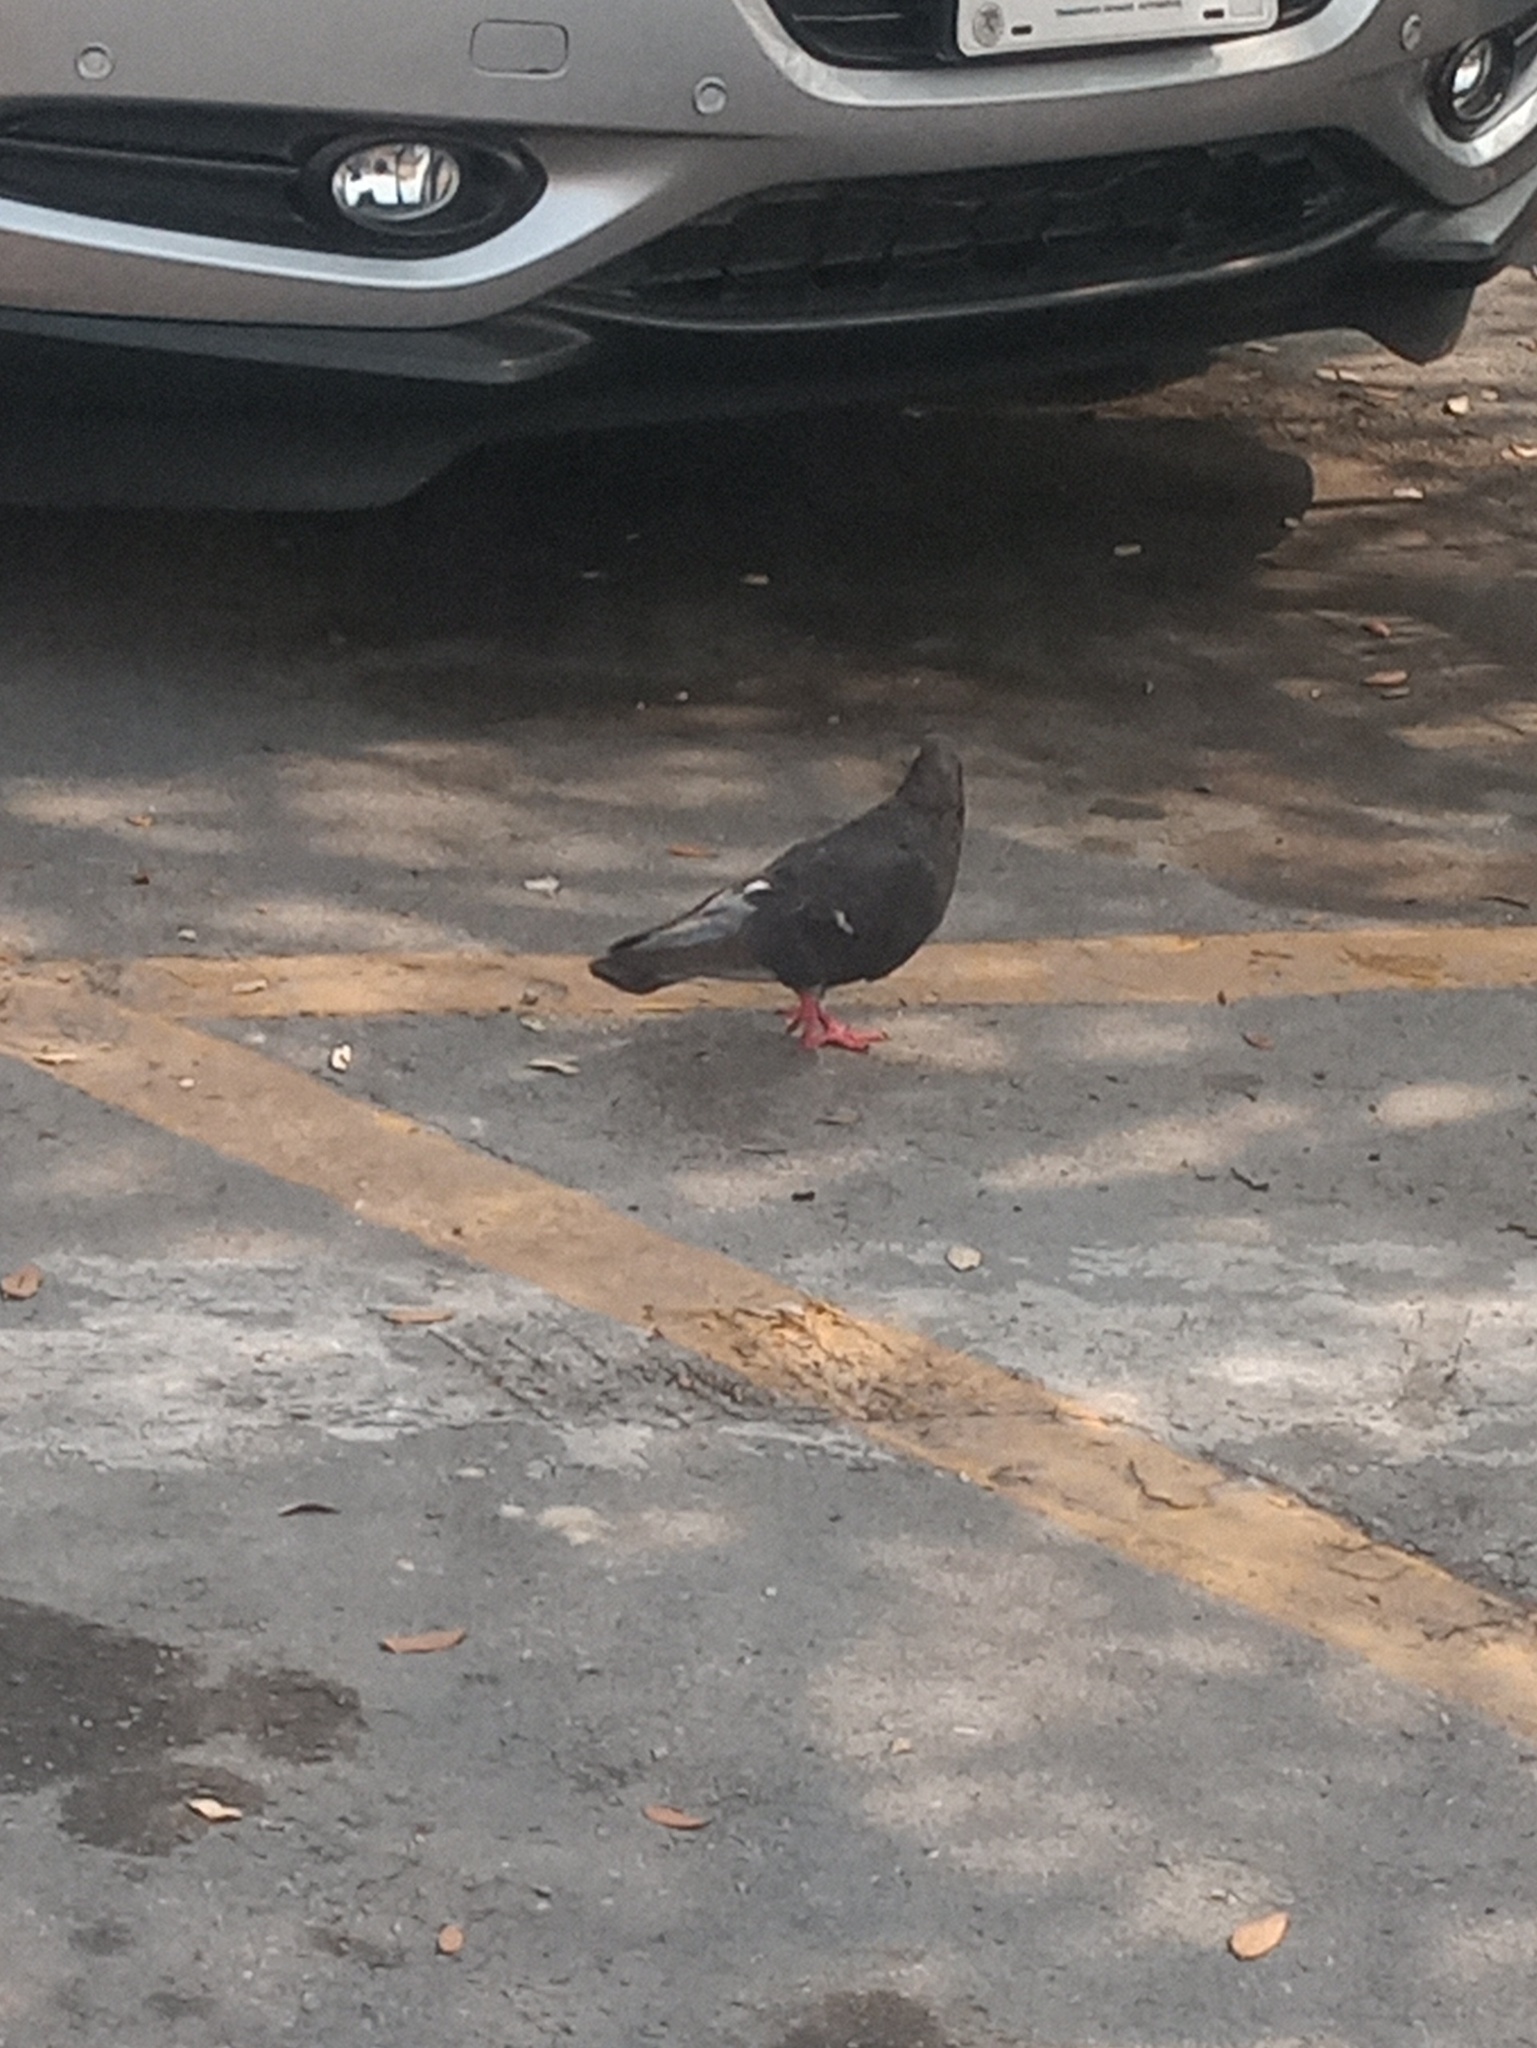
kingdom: Animalia
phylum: Chordata
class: Aves
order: Columbiformes
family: Columbidae
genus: Columba
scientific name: Columba livia
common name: Rock pigeon
